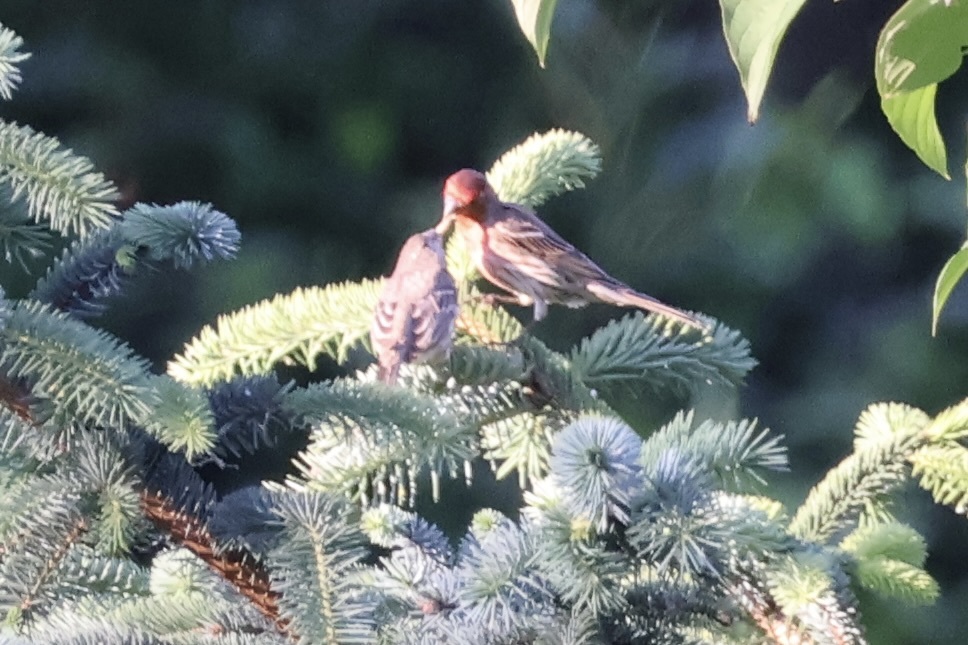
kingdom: Animalia
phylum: Chordata
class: Aves
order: Passeriformes
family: Fringillidae
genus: Haemorhous
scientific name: Haemorhous mexicanus
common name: House finch
